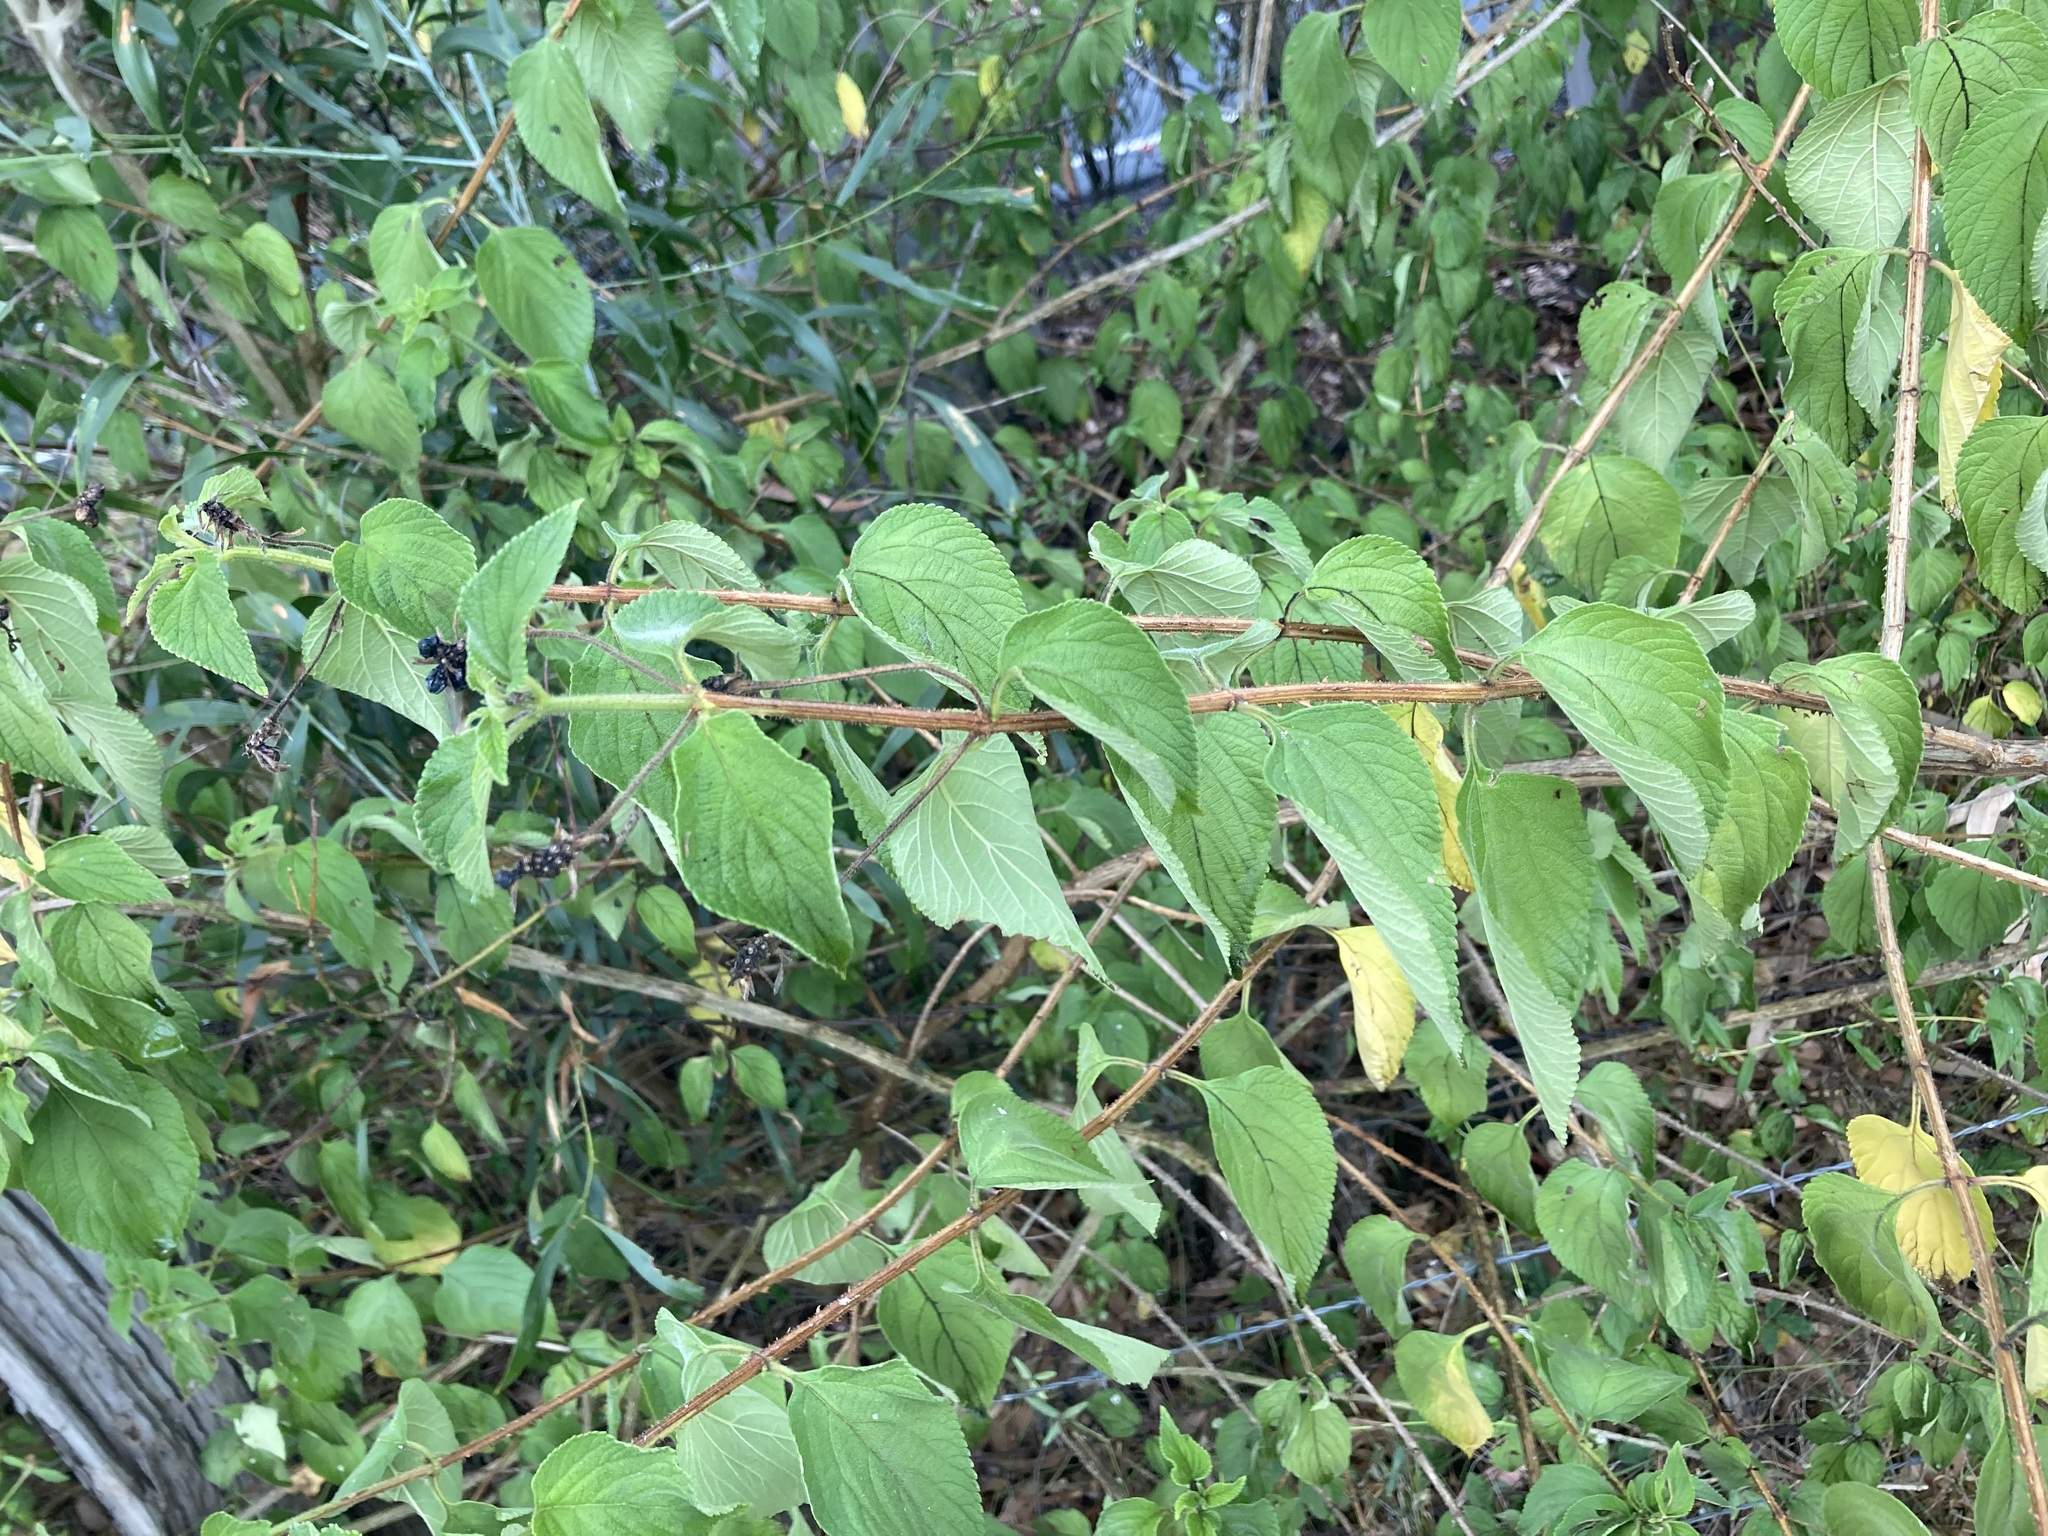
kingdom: Plantae
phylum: Tracheophyta
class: Magnoliopsida
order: Lamiales
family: Verbenaceae
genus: Lantana
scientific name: Lantana camara
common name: Lantana
